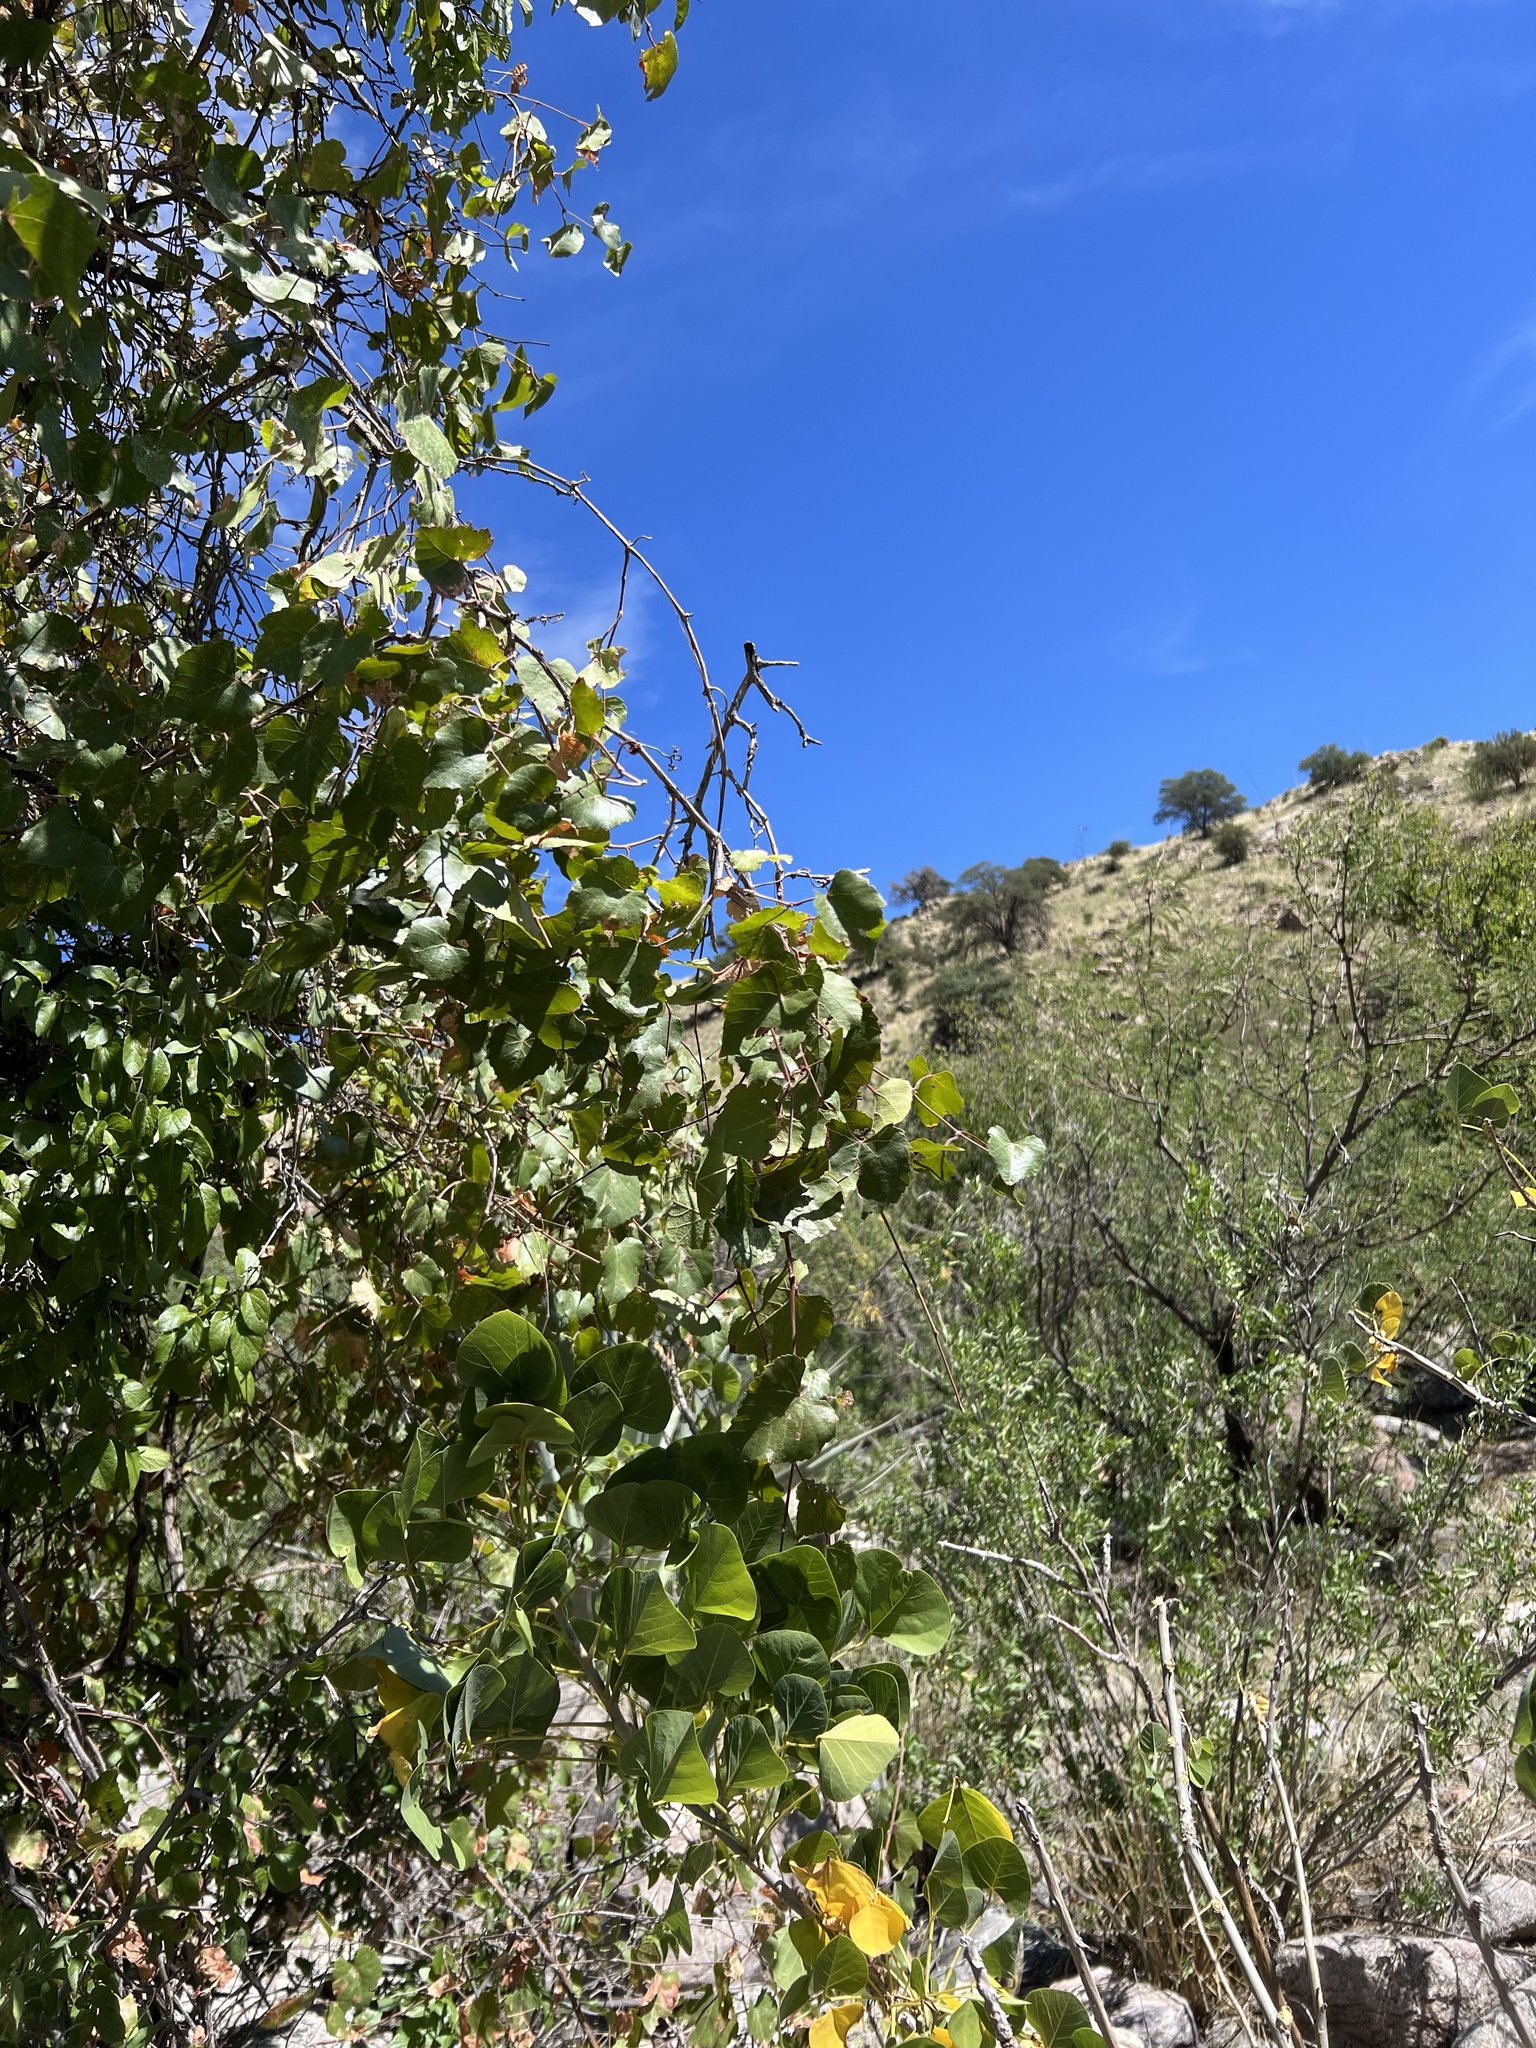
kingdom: Plantae
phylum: Tracheophyta
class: Magnoliopsida
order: Vitales
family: Vitaceae
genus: Vitis
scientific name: Vitis arizonica
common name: Canyon grape
